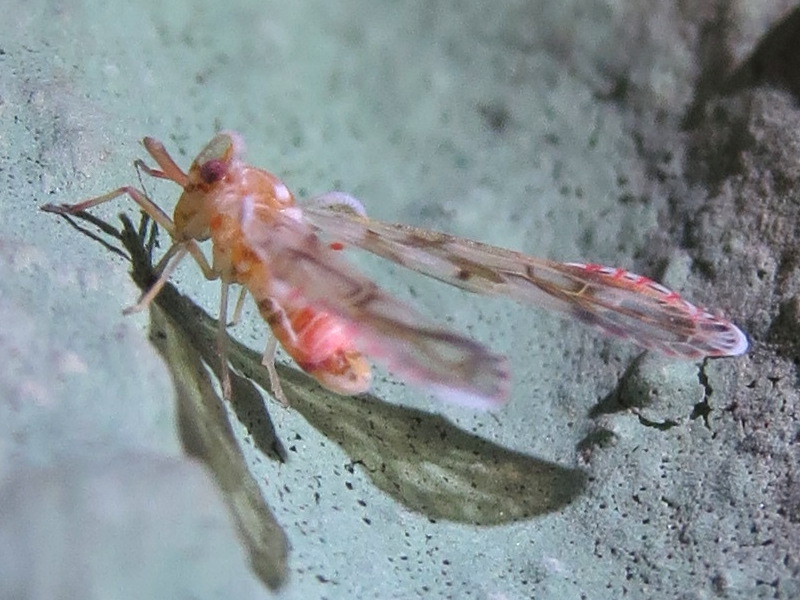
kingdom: Animalia
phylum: Arthropoda
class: Insecta
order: Hemiptera
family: Derbidae
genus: Anotia
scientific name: Anotia kirkaldyi
